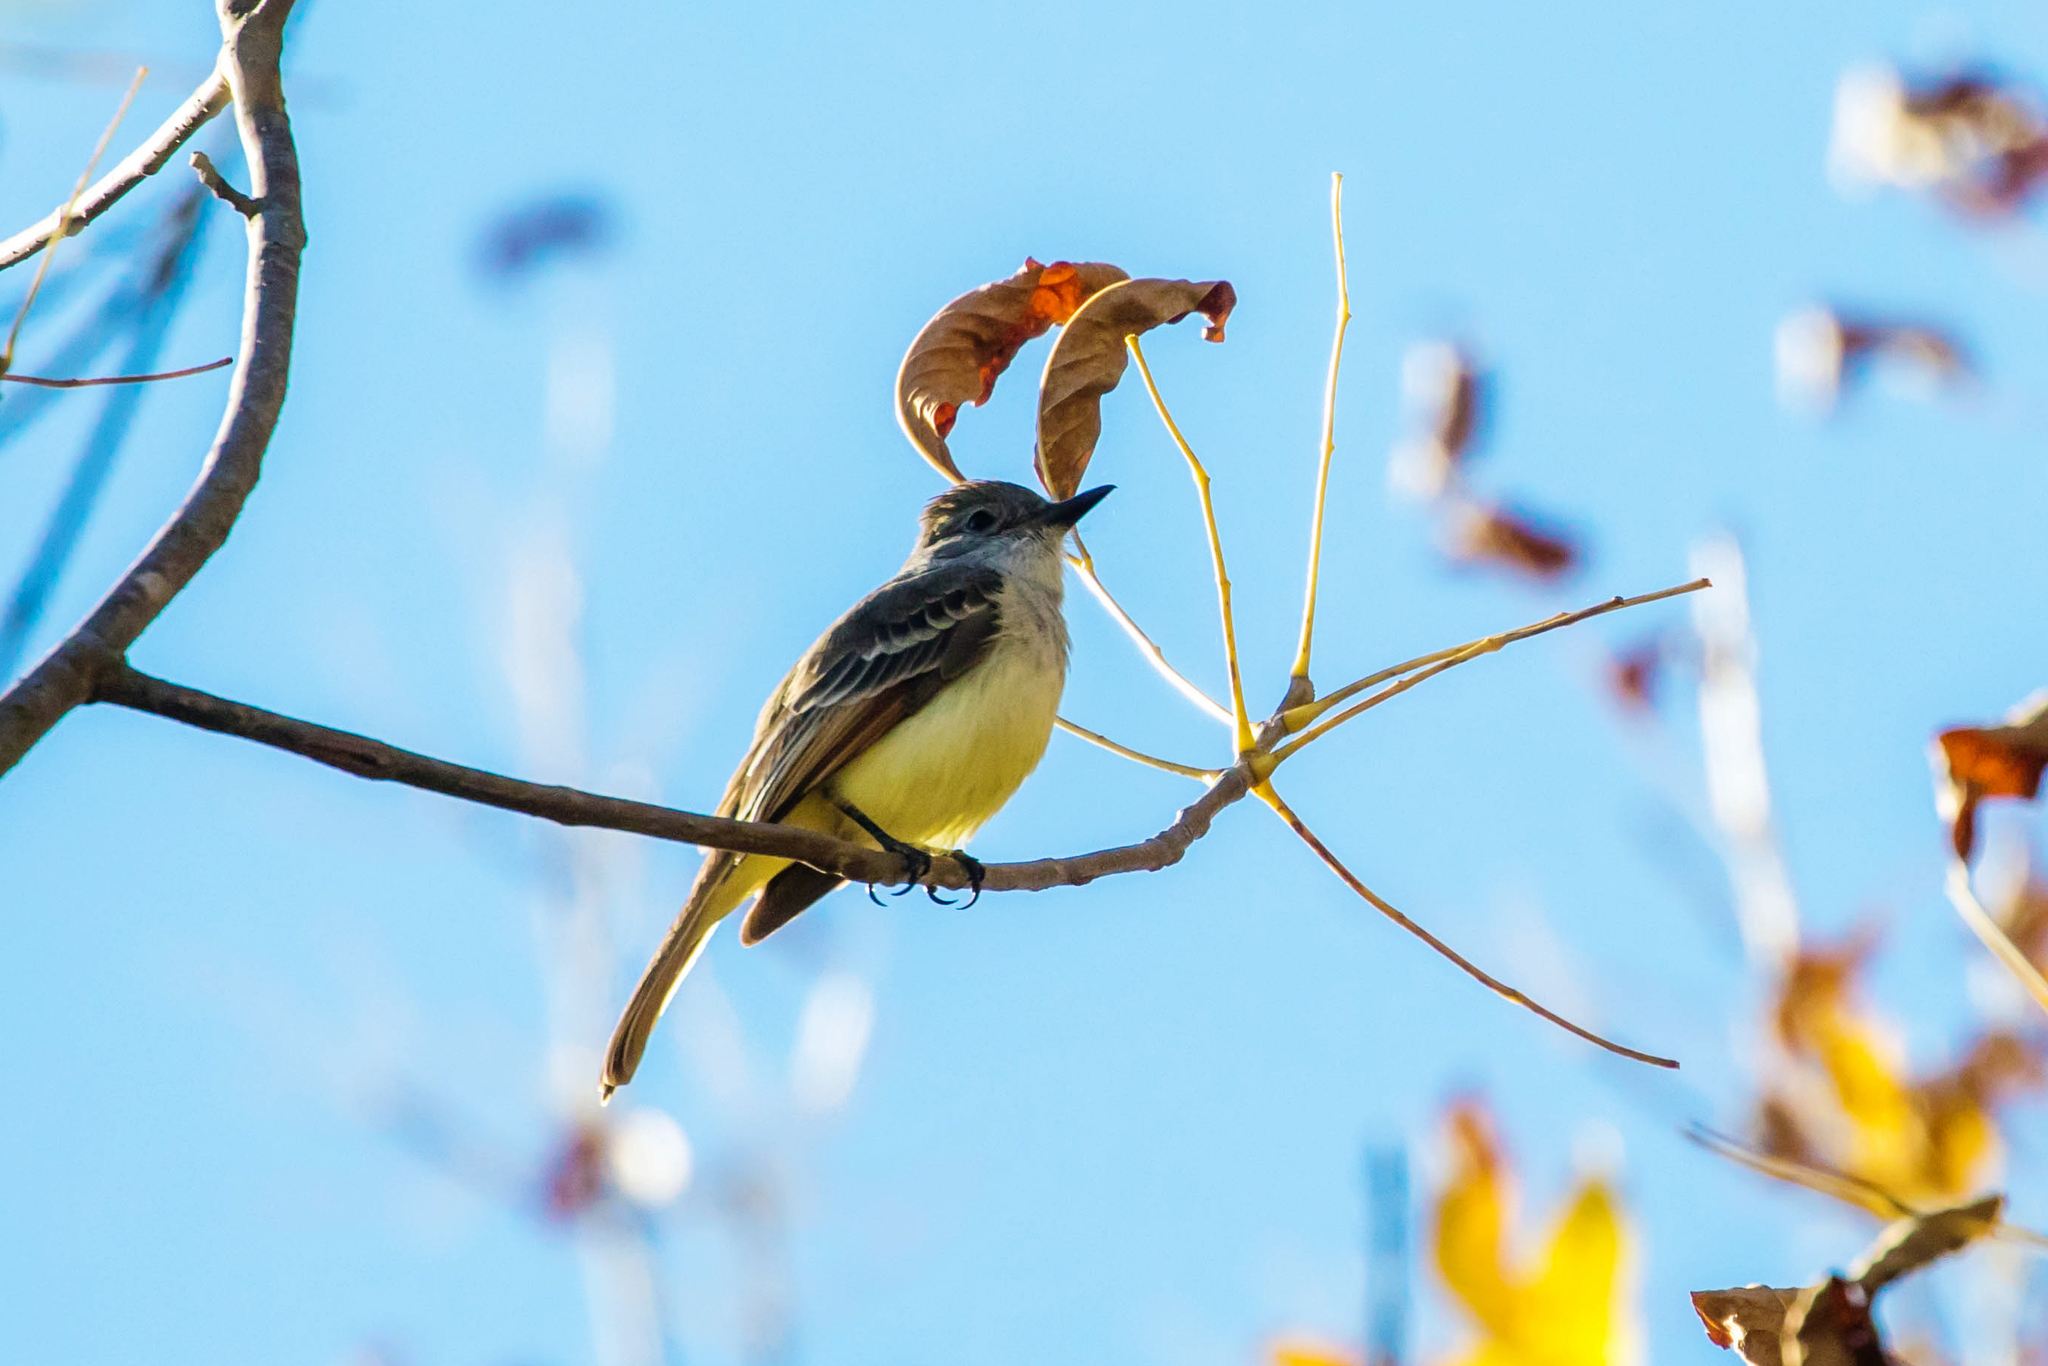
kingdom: Animalia
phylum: Chordata
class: Aves
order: Passeriformes
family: Tyrannidae
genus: Myiarchus
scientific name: Myiarchus cinerascens
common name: Ash-throated flycatcher
